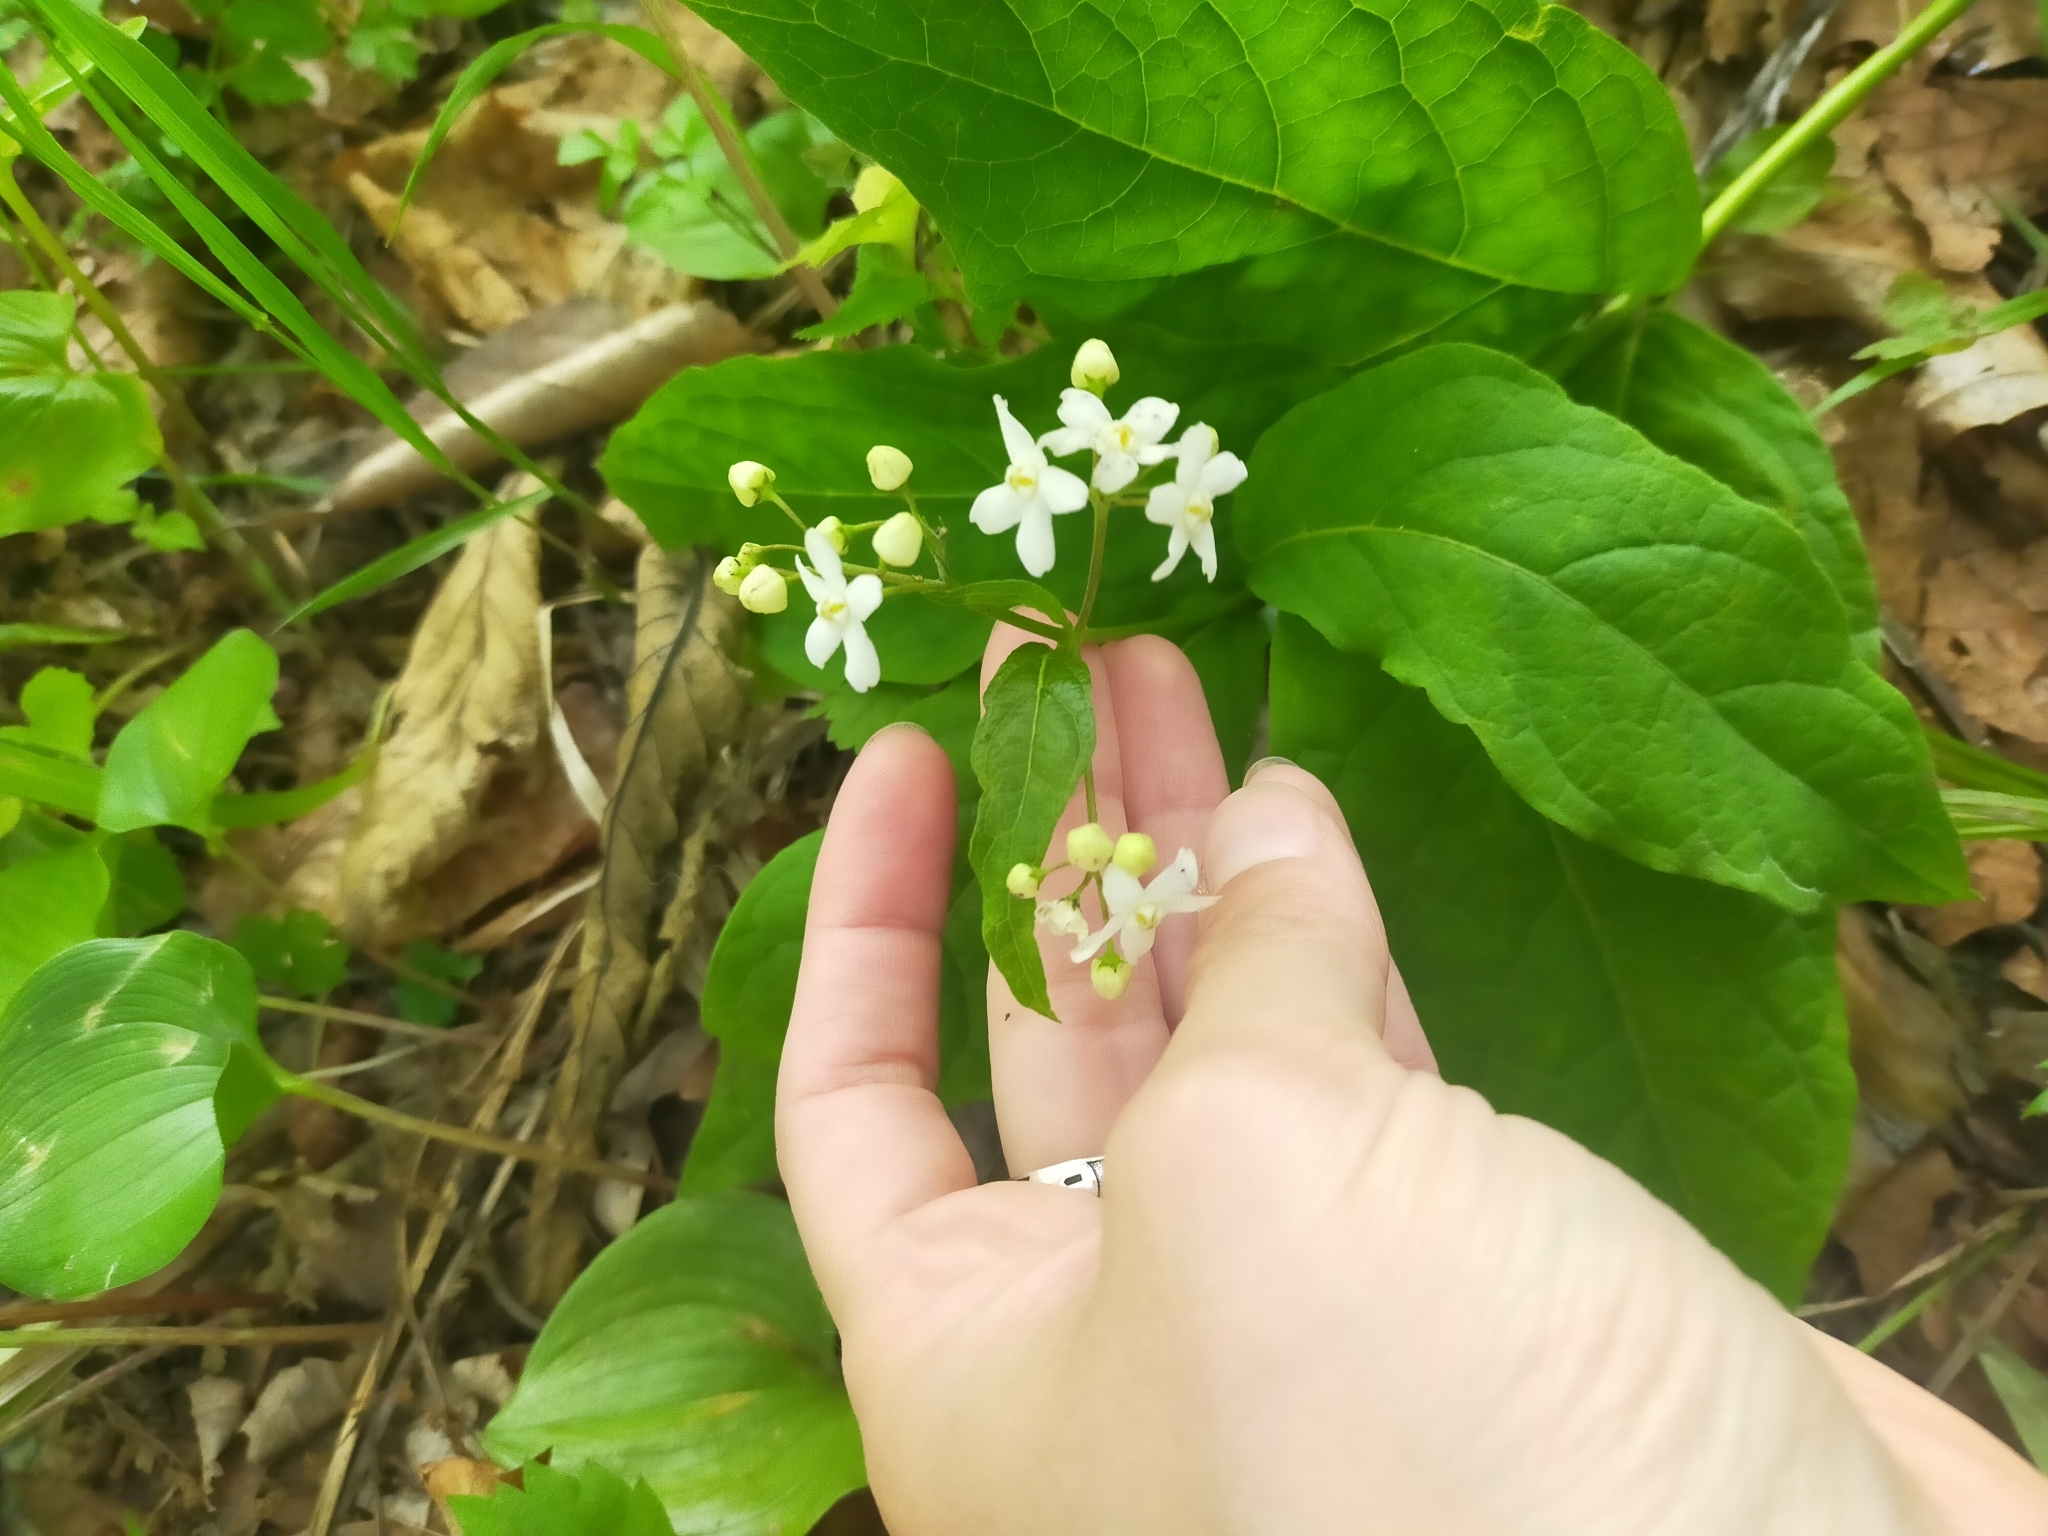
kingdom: Plantae
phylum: Tracheophyta
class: Magnoliopsida
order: Gentianales
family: Apocynaceae
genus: Vincetoxicum
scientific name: Vincetoxicum ascyrifolium
